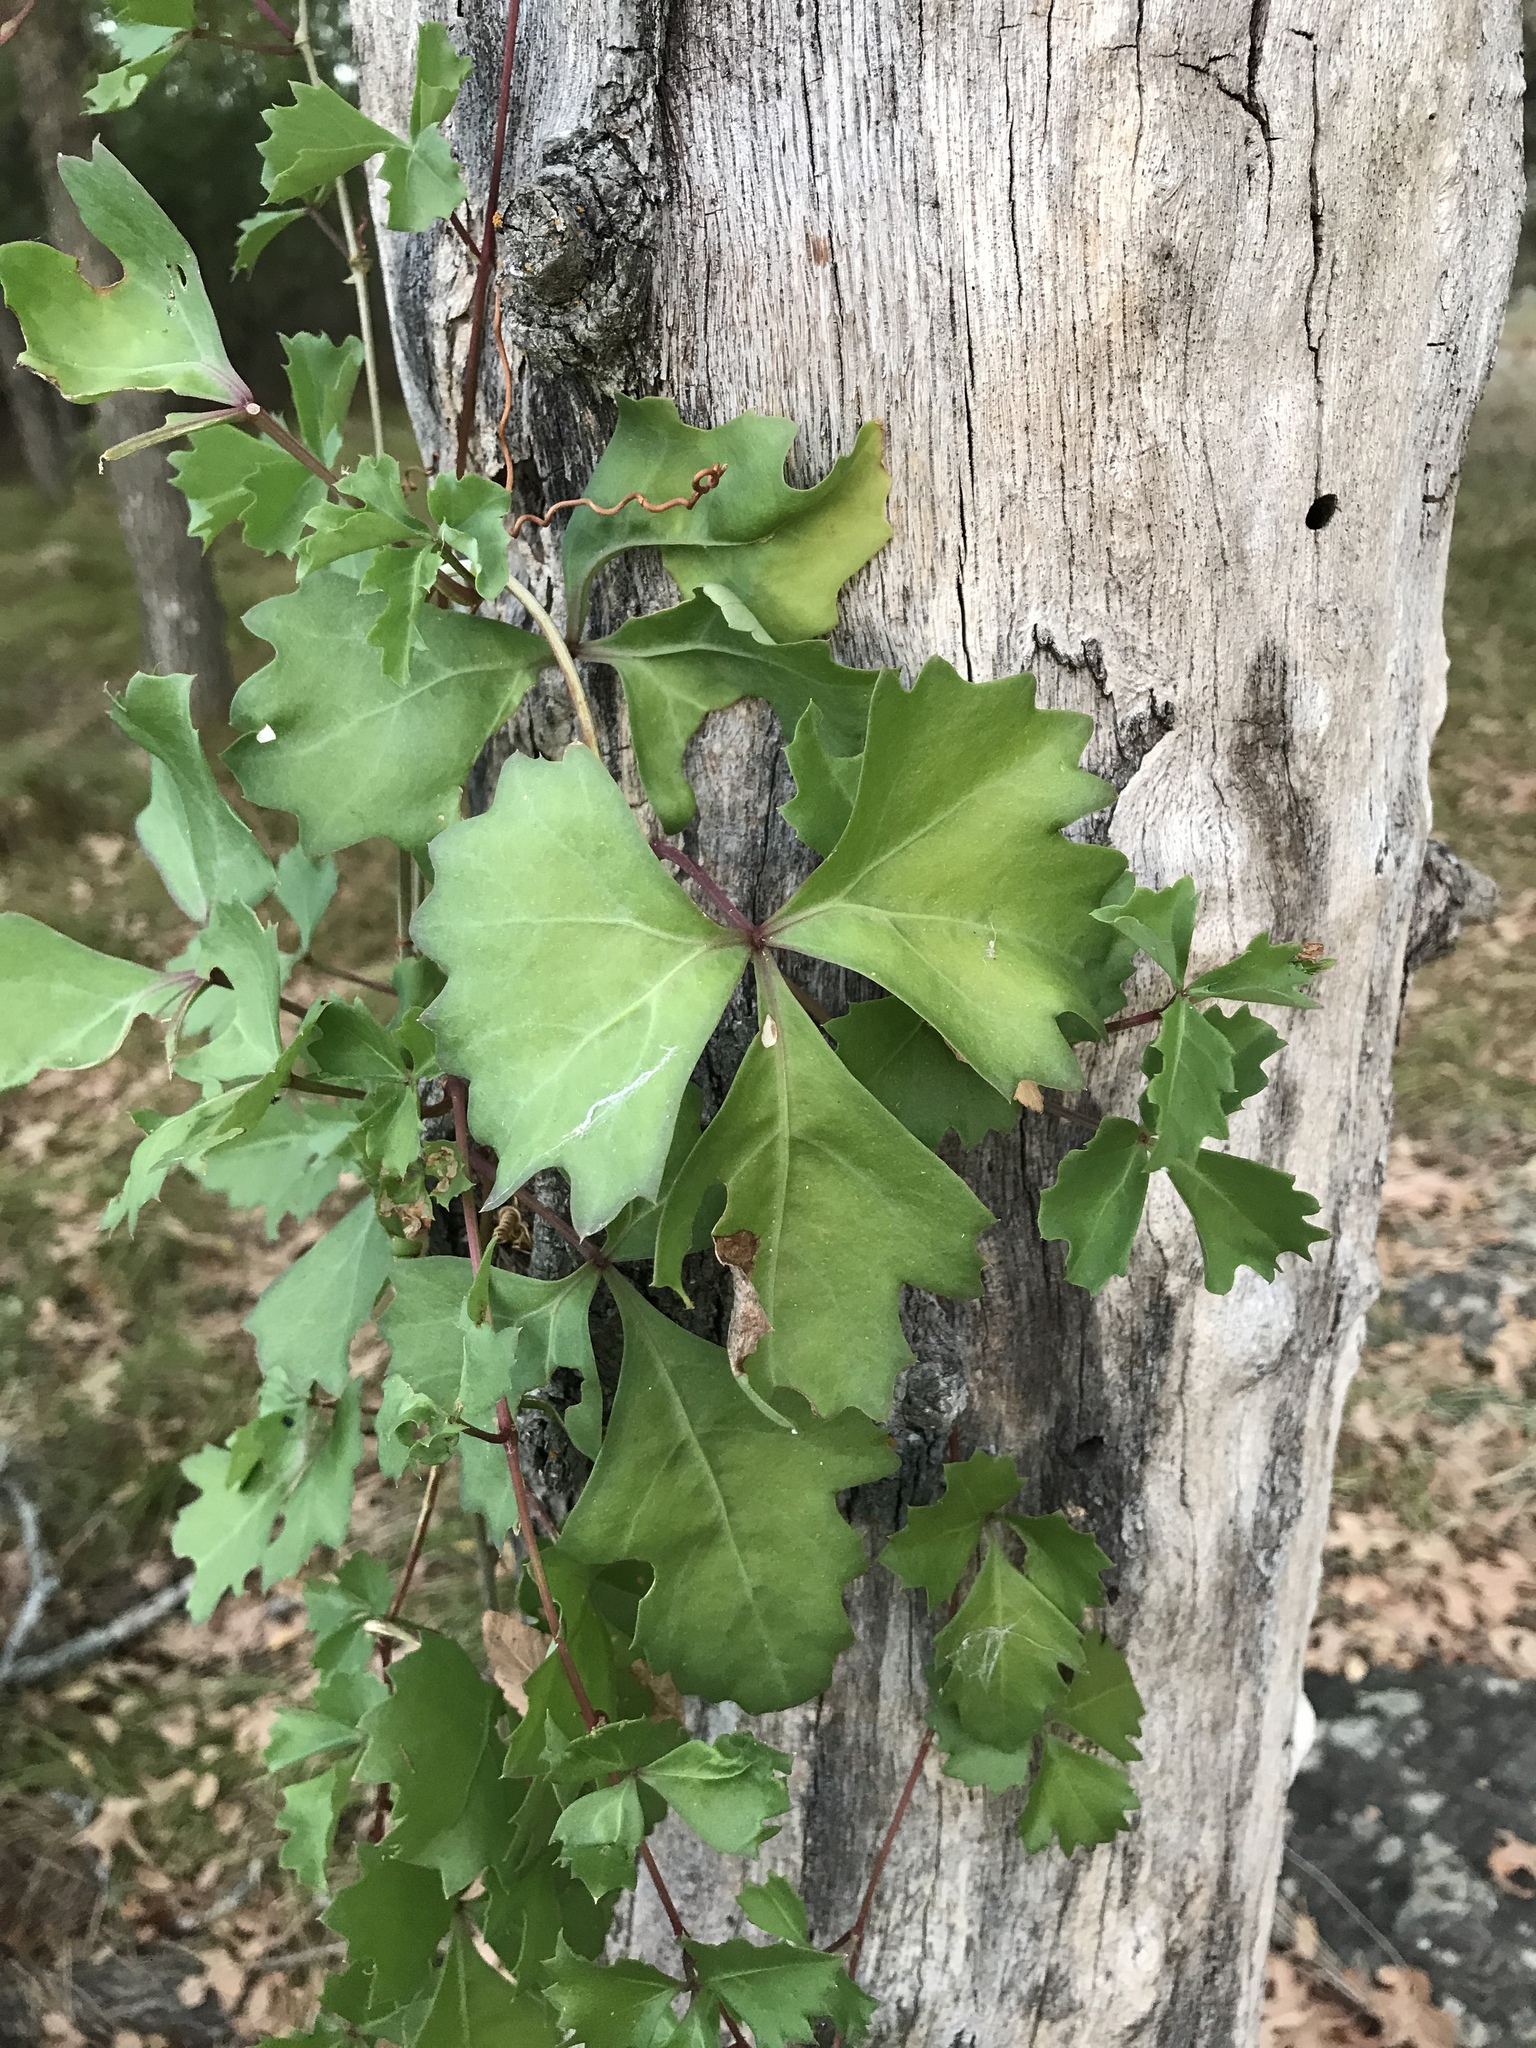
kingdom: Plantae
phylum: Tracheophyta
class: Magnoliopsida
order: Vitales
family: Vitaceae
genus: Cissus
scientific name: Cissus trifoliata
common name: Vine-sorrel
